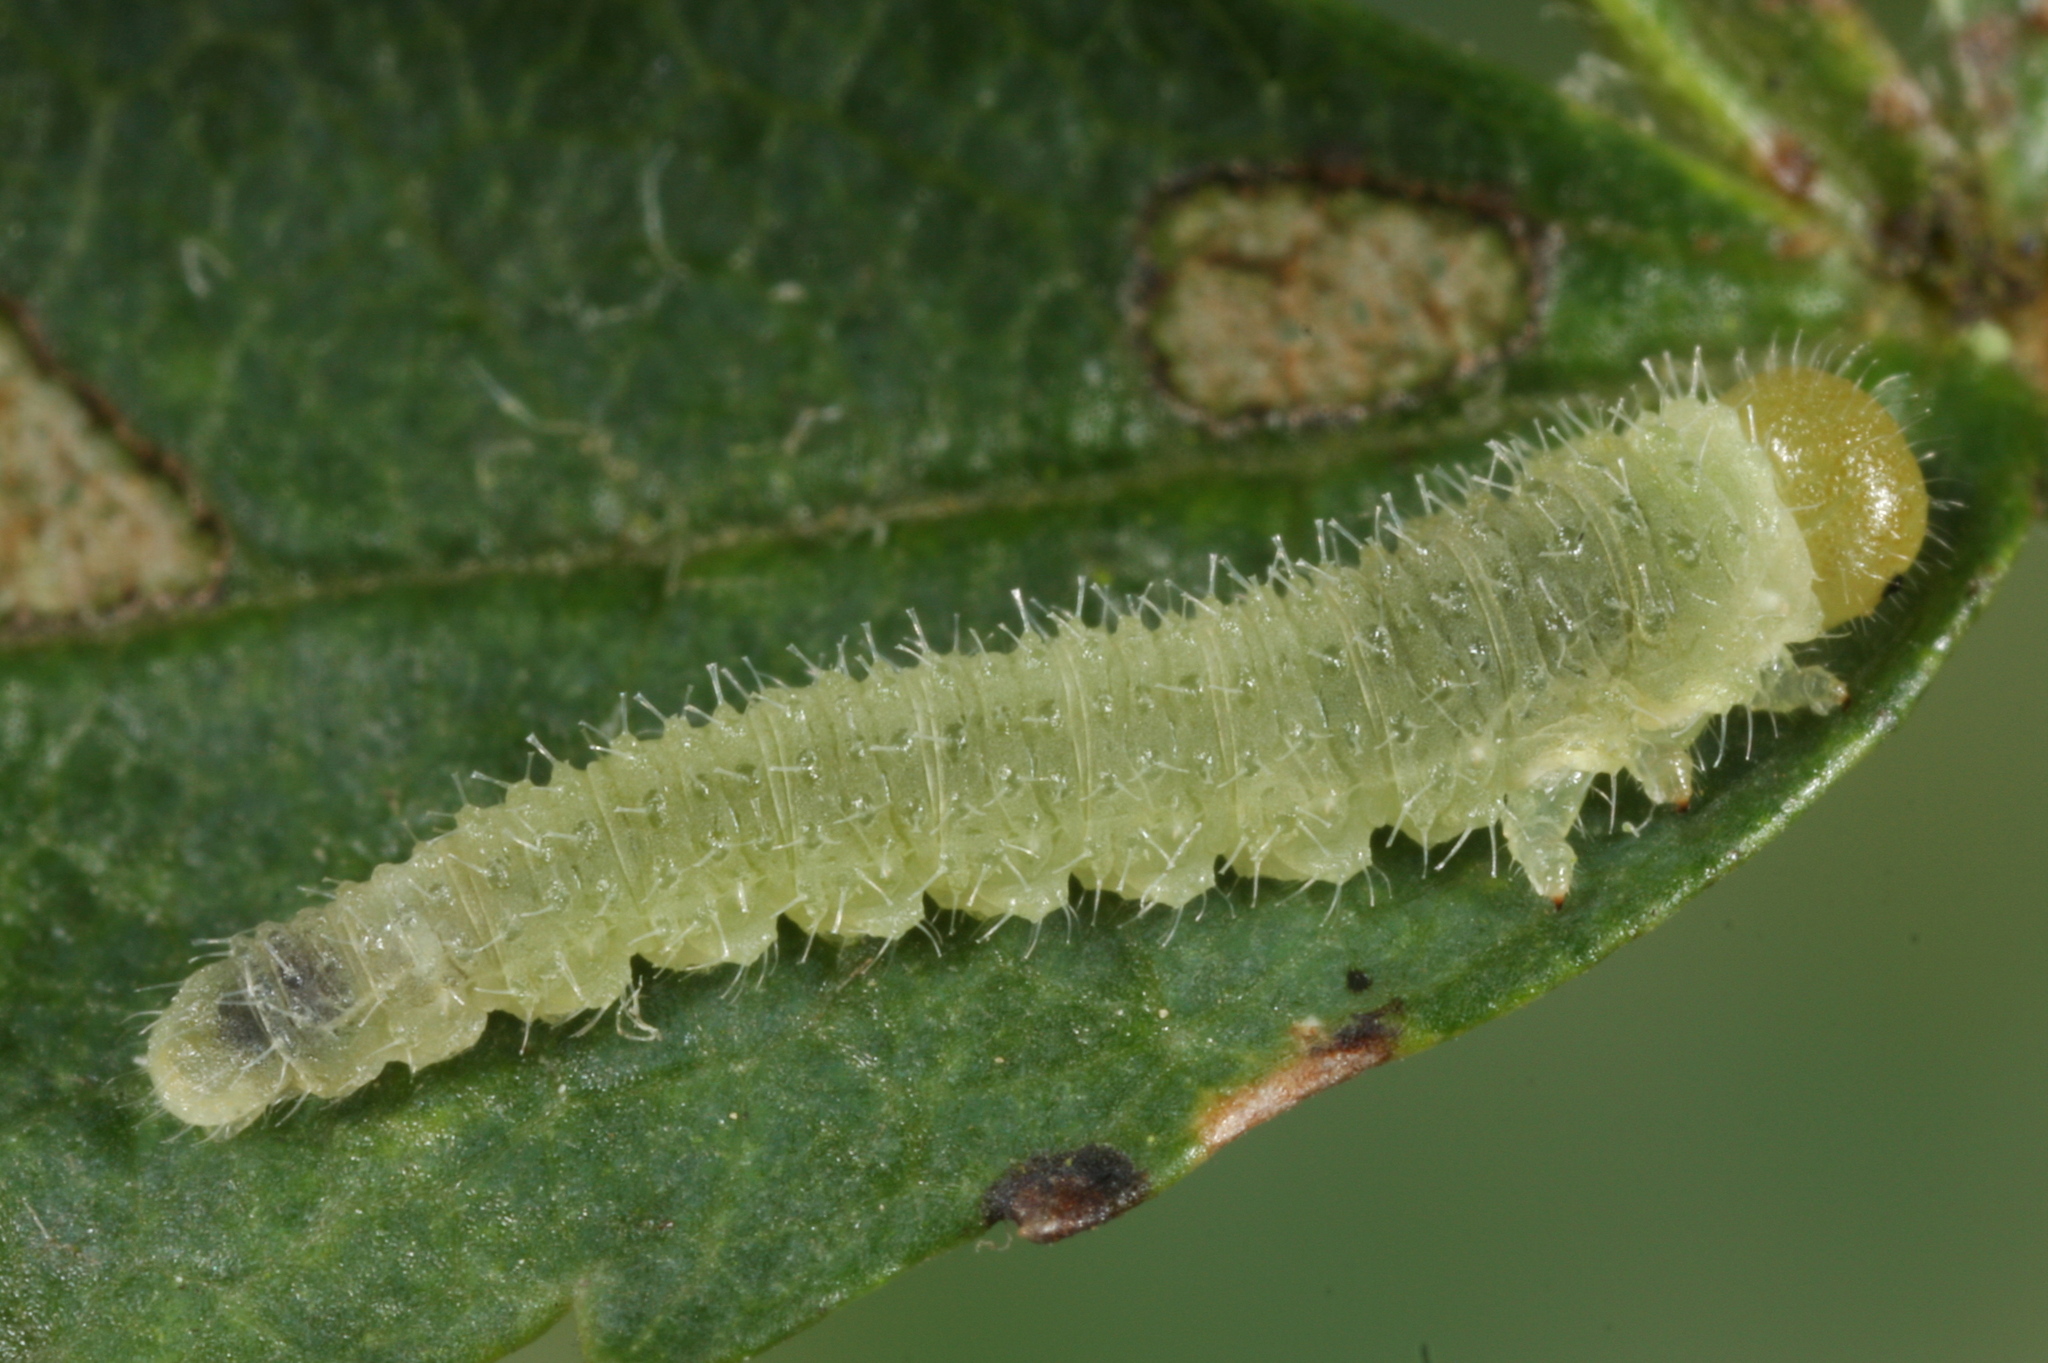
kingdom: Animalia
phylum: Arthropoda
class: Insecta
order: Hymenoptera
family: Tenthredinidae
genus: Dineura
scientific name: Dineura testaceipes
